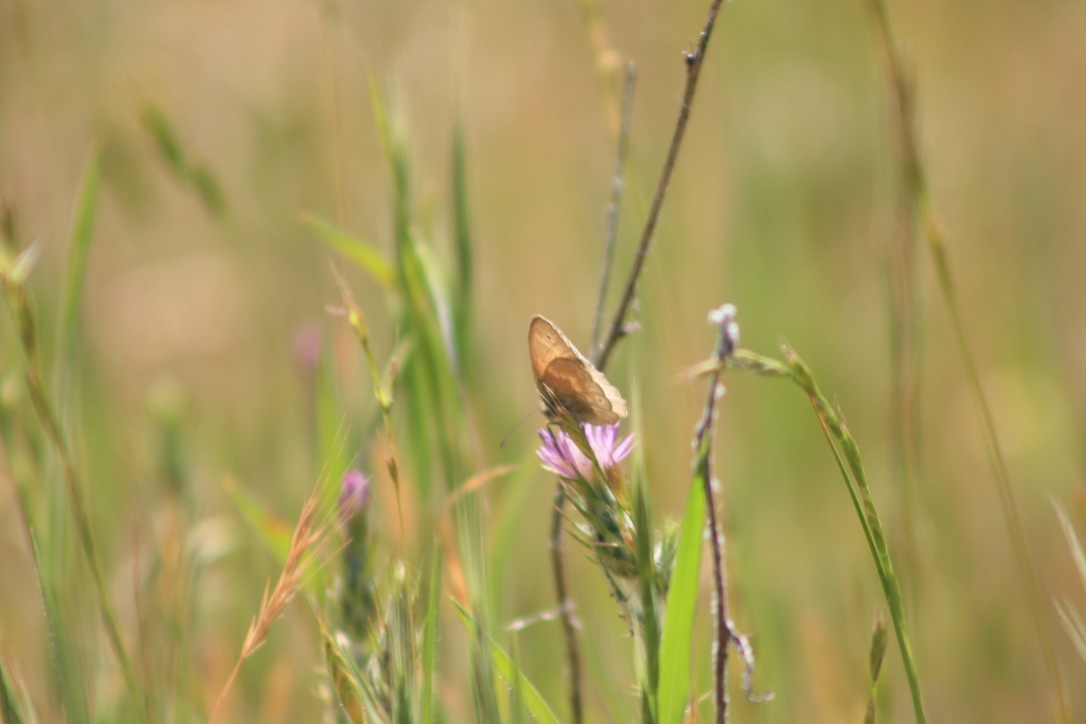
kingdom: Animalia
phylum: Arthropoda
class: Insecta
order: Lepidoptera
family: Nymphalidae
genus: Coenonympha
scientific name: Coenonympha california
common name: Common ringlet
